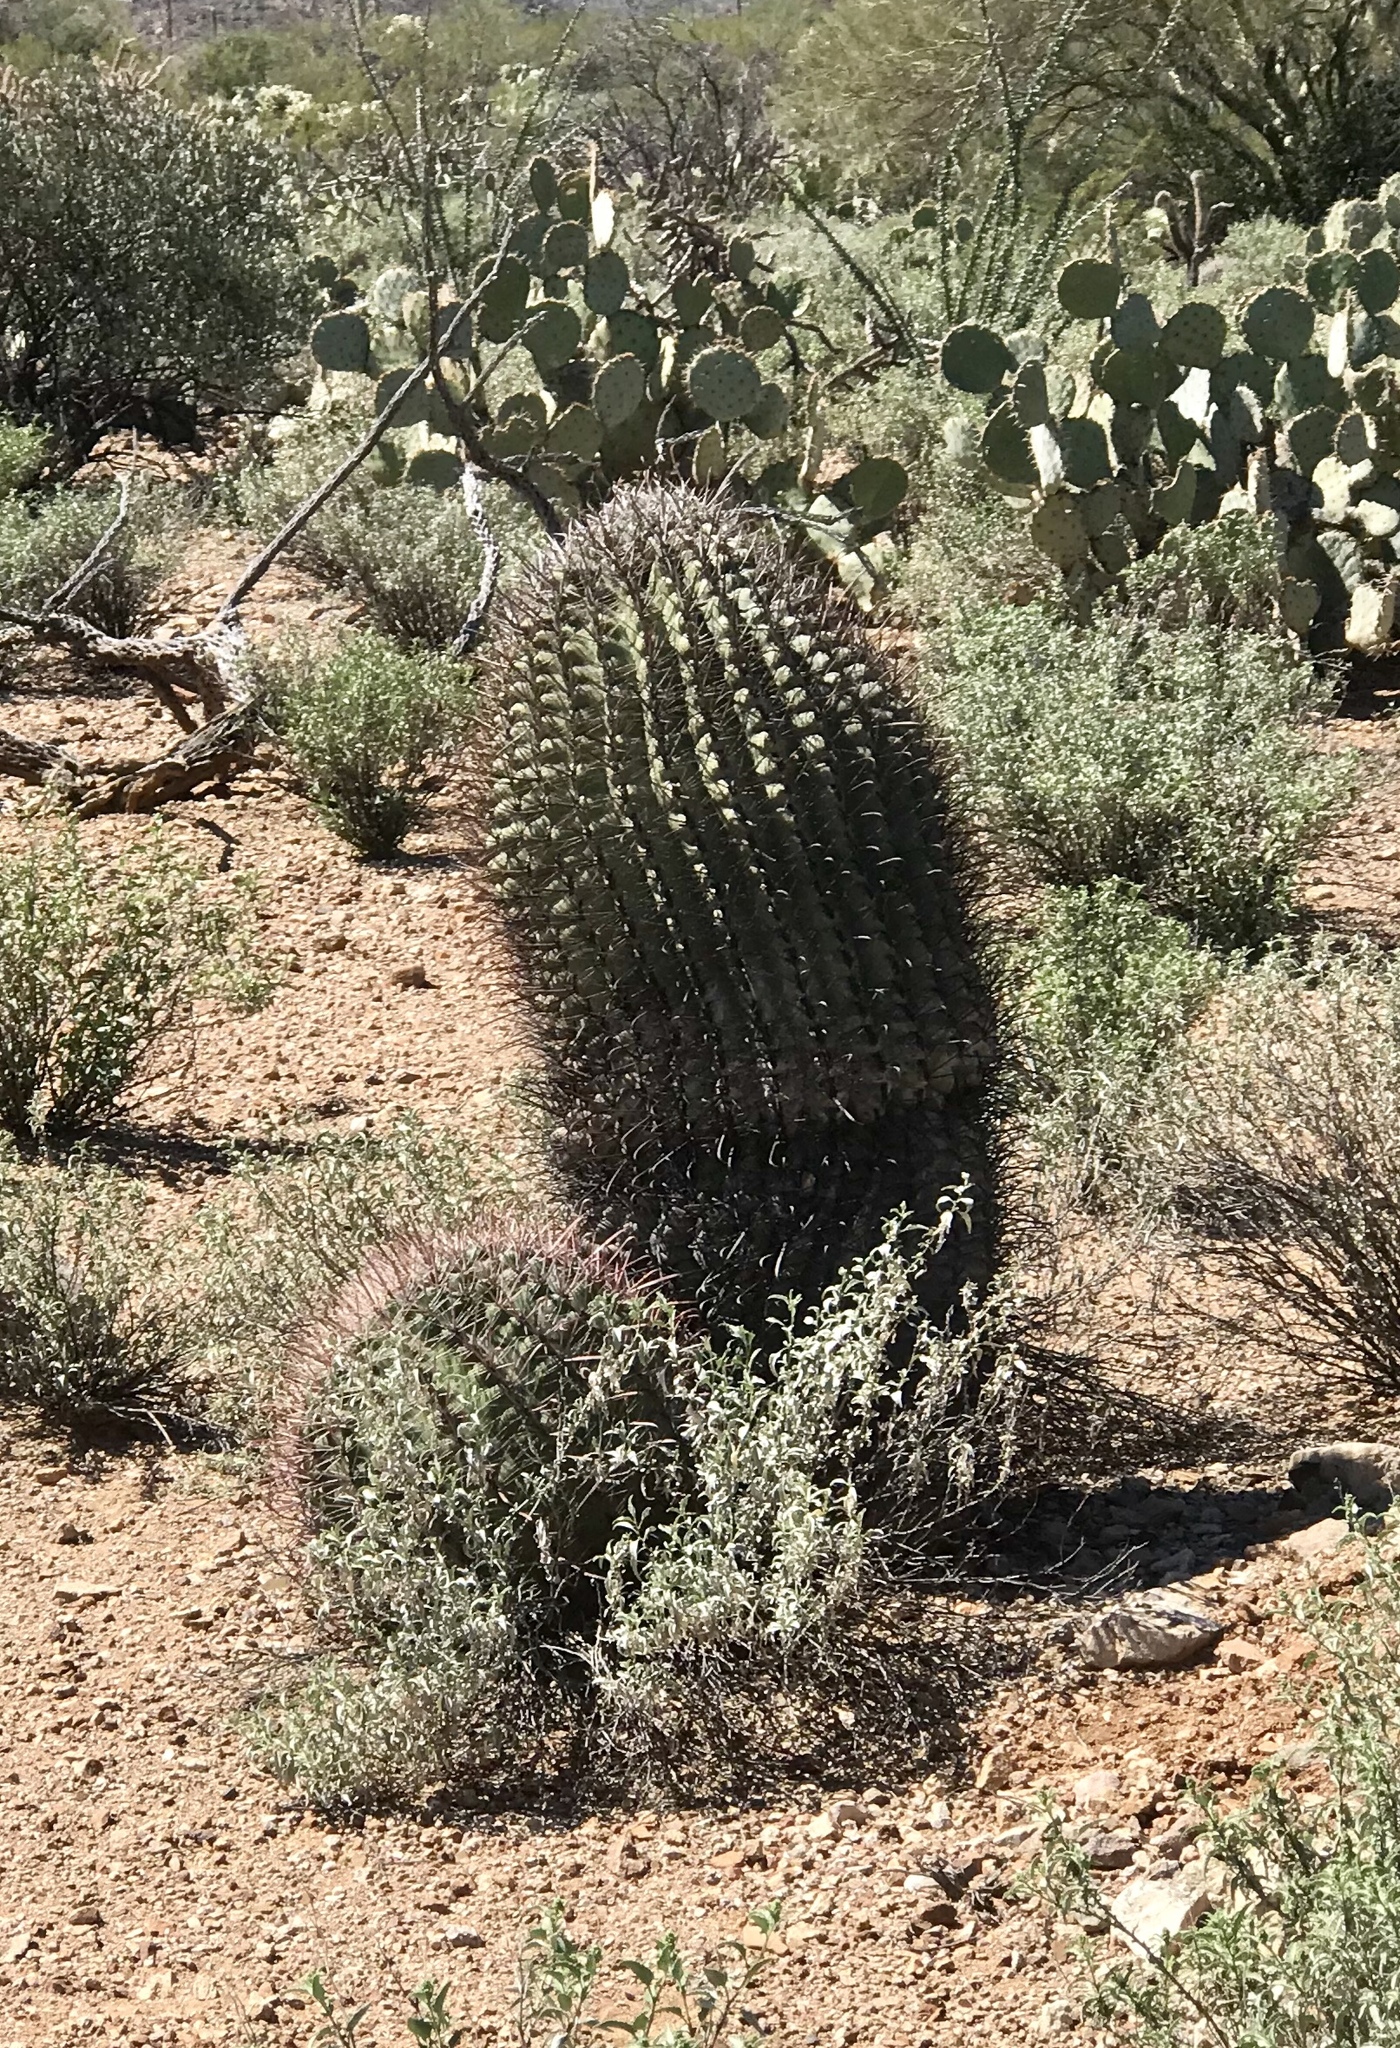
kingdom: Plantae
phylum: Tracheophyta
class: Magnoliopsida
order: Caryophyllales
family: Cactaceae
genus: Ferocactus
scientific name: Ferocactus wislizeni
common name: Candy barrel cactus
